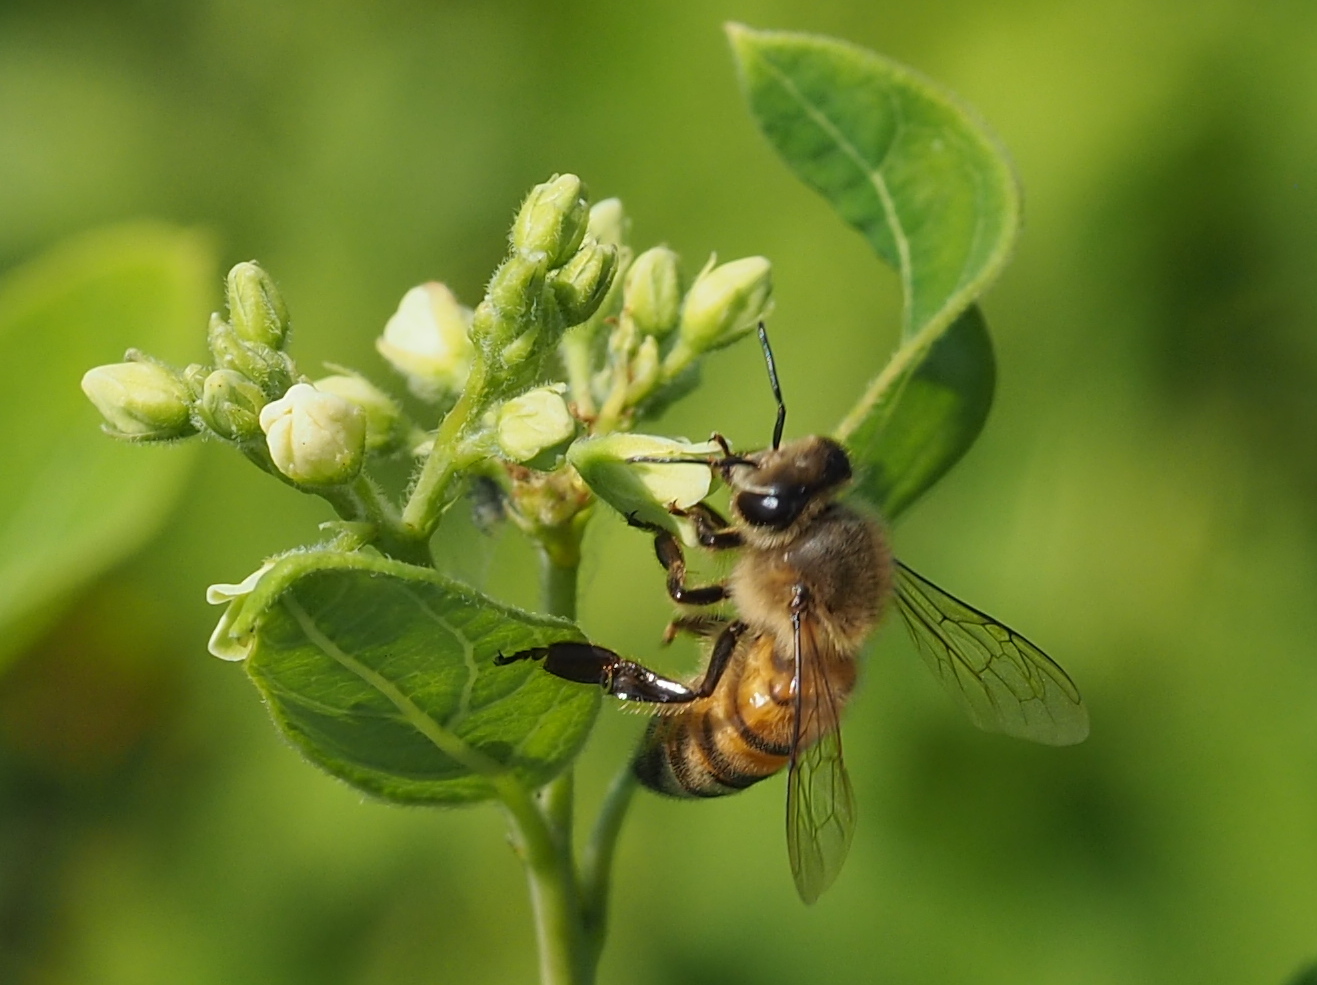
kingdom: Animalia
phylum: Arthropoda
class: Insecta
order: Hymenoptera
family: Apidae
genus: Apis
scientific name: Apis mellifera
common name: Honey bee
